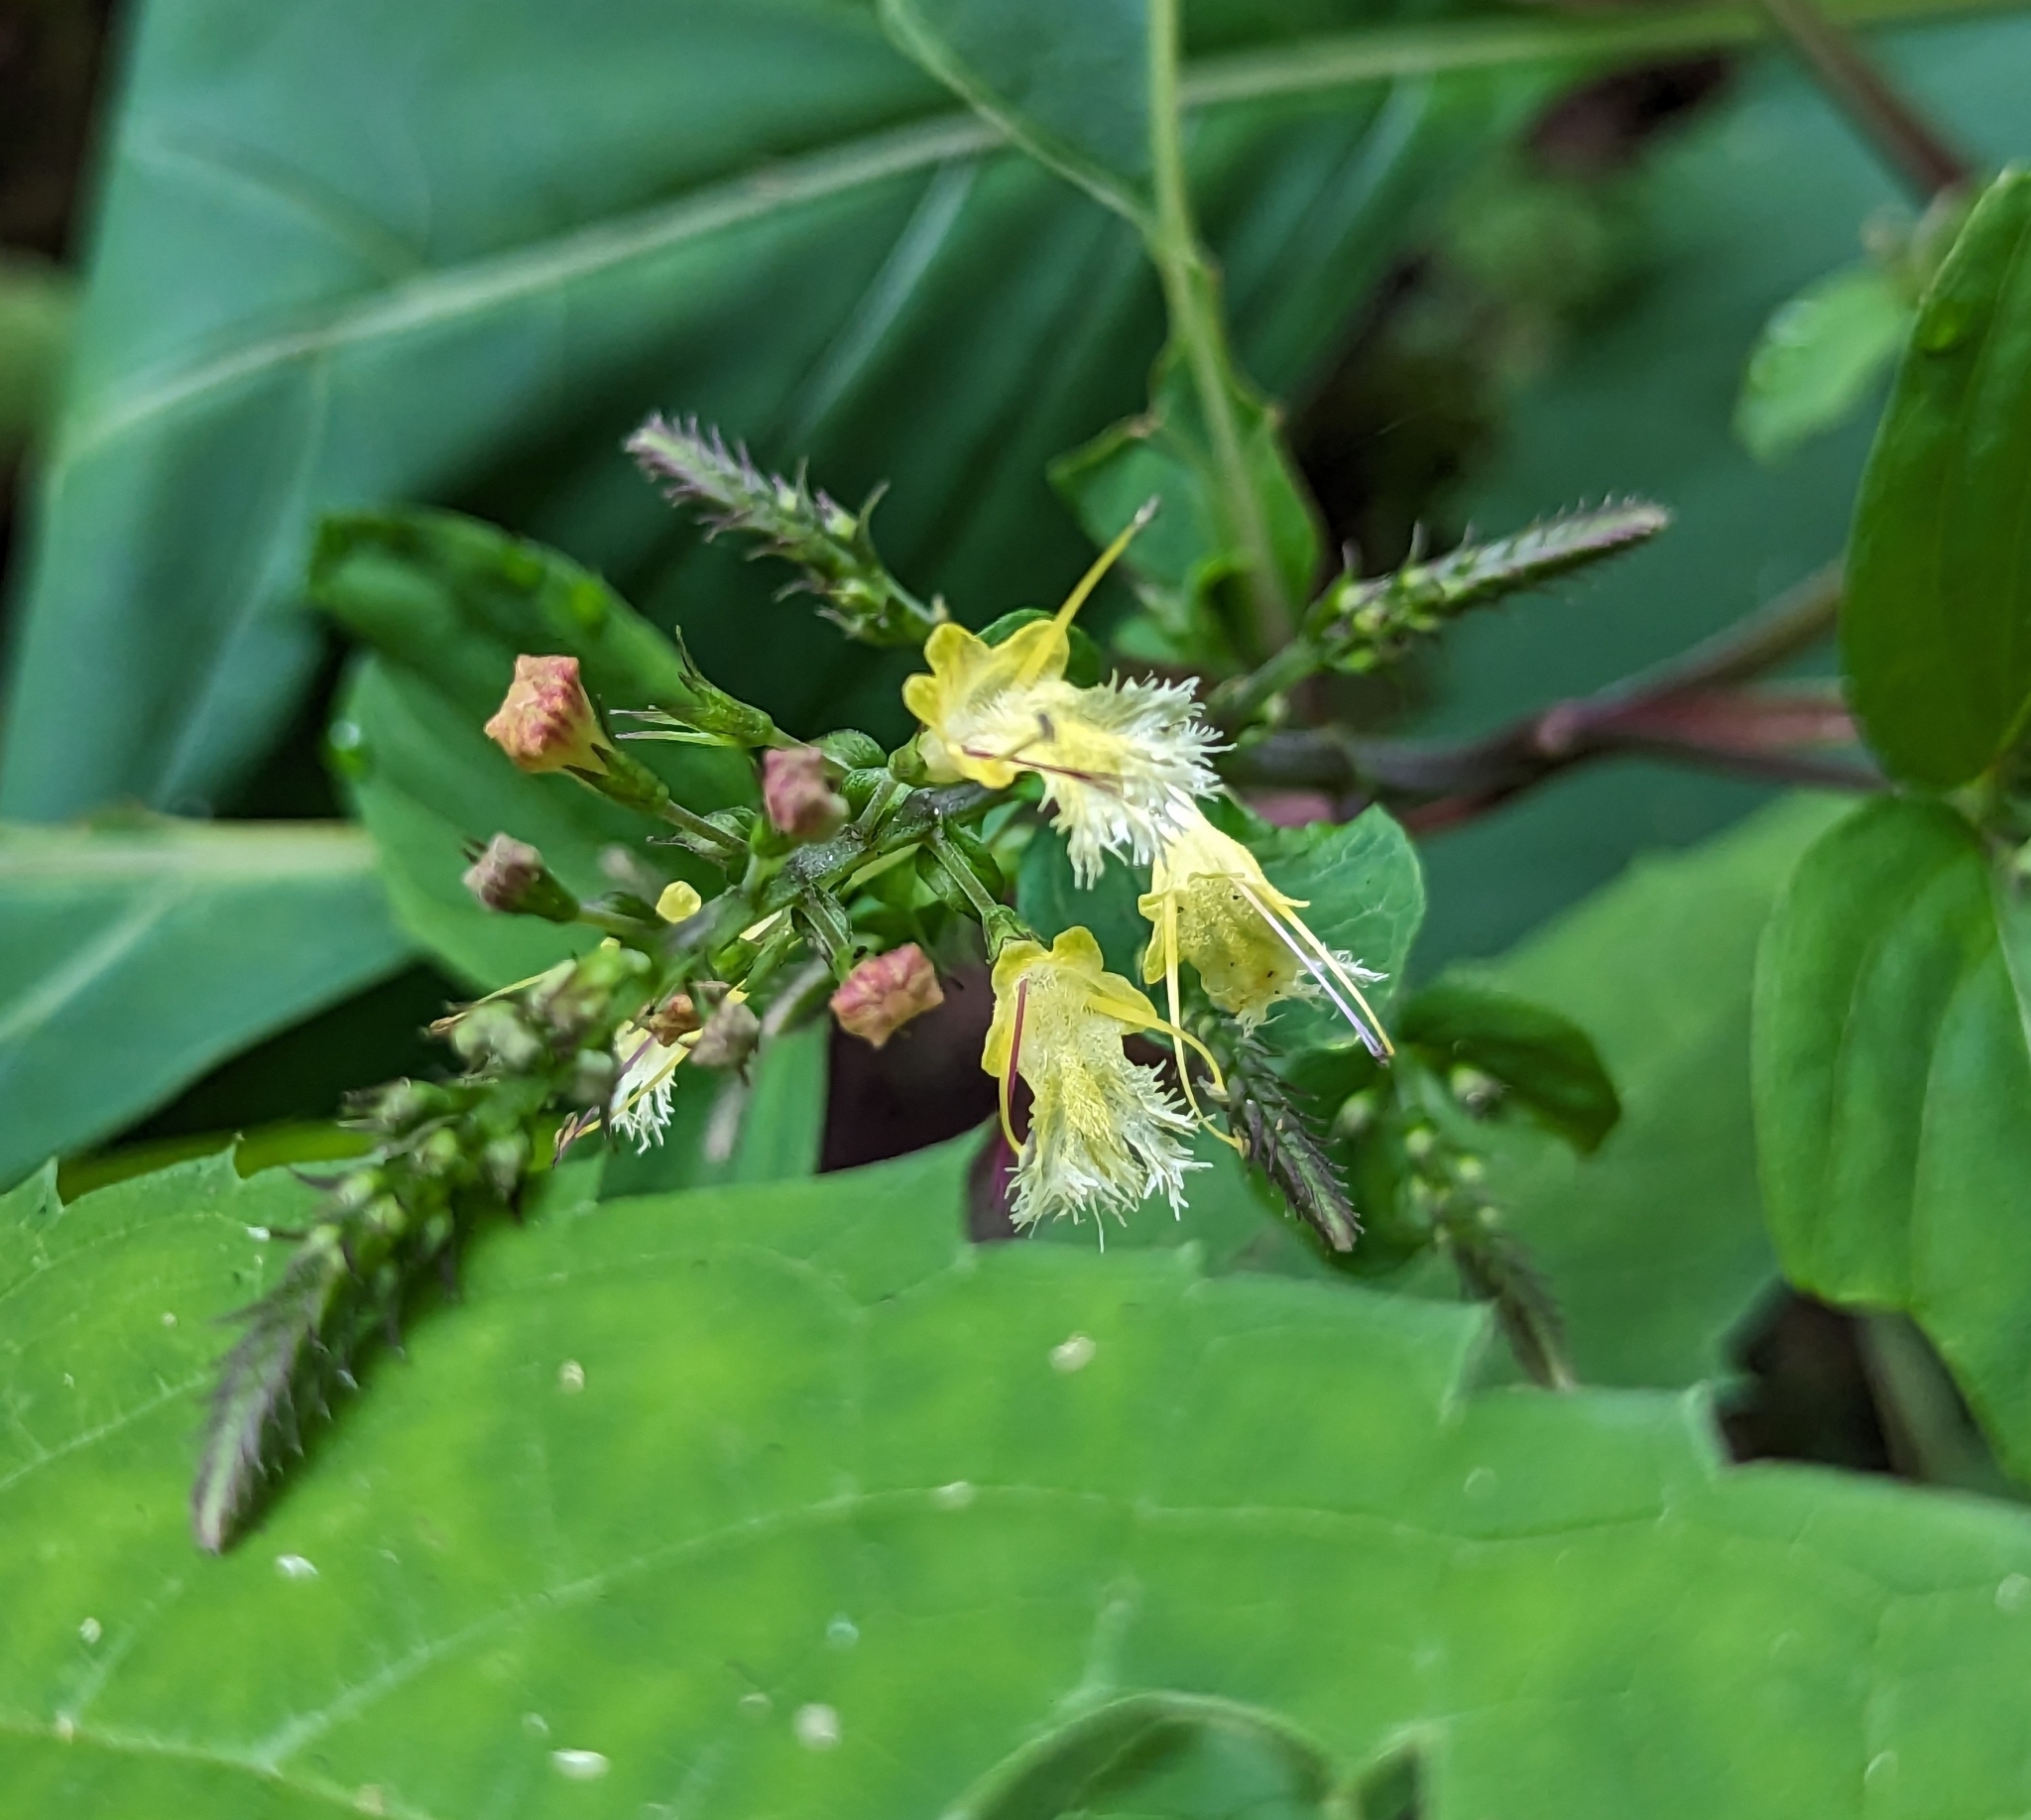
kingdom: Plantae
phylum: Tracheophyta
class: Magnoliopsida
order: Lamiales
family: Lamiaceae
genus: Collinsonia
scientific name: Collinsonia canadensis
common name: Northern horsebalm
